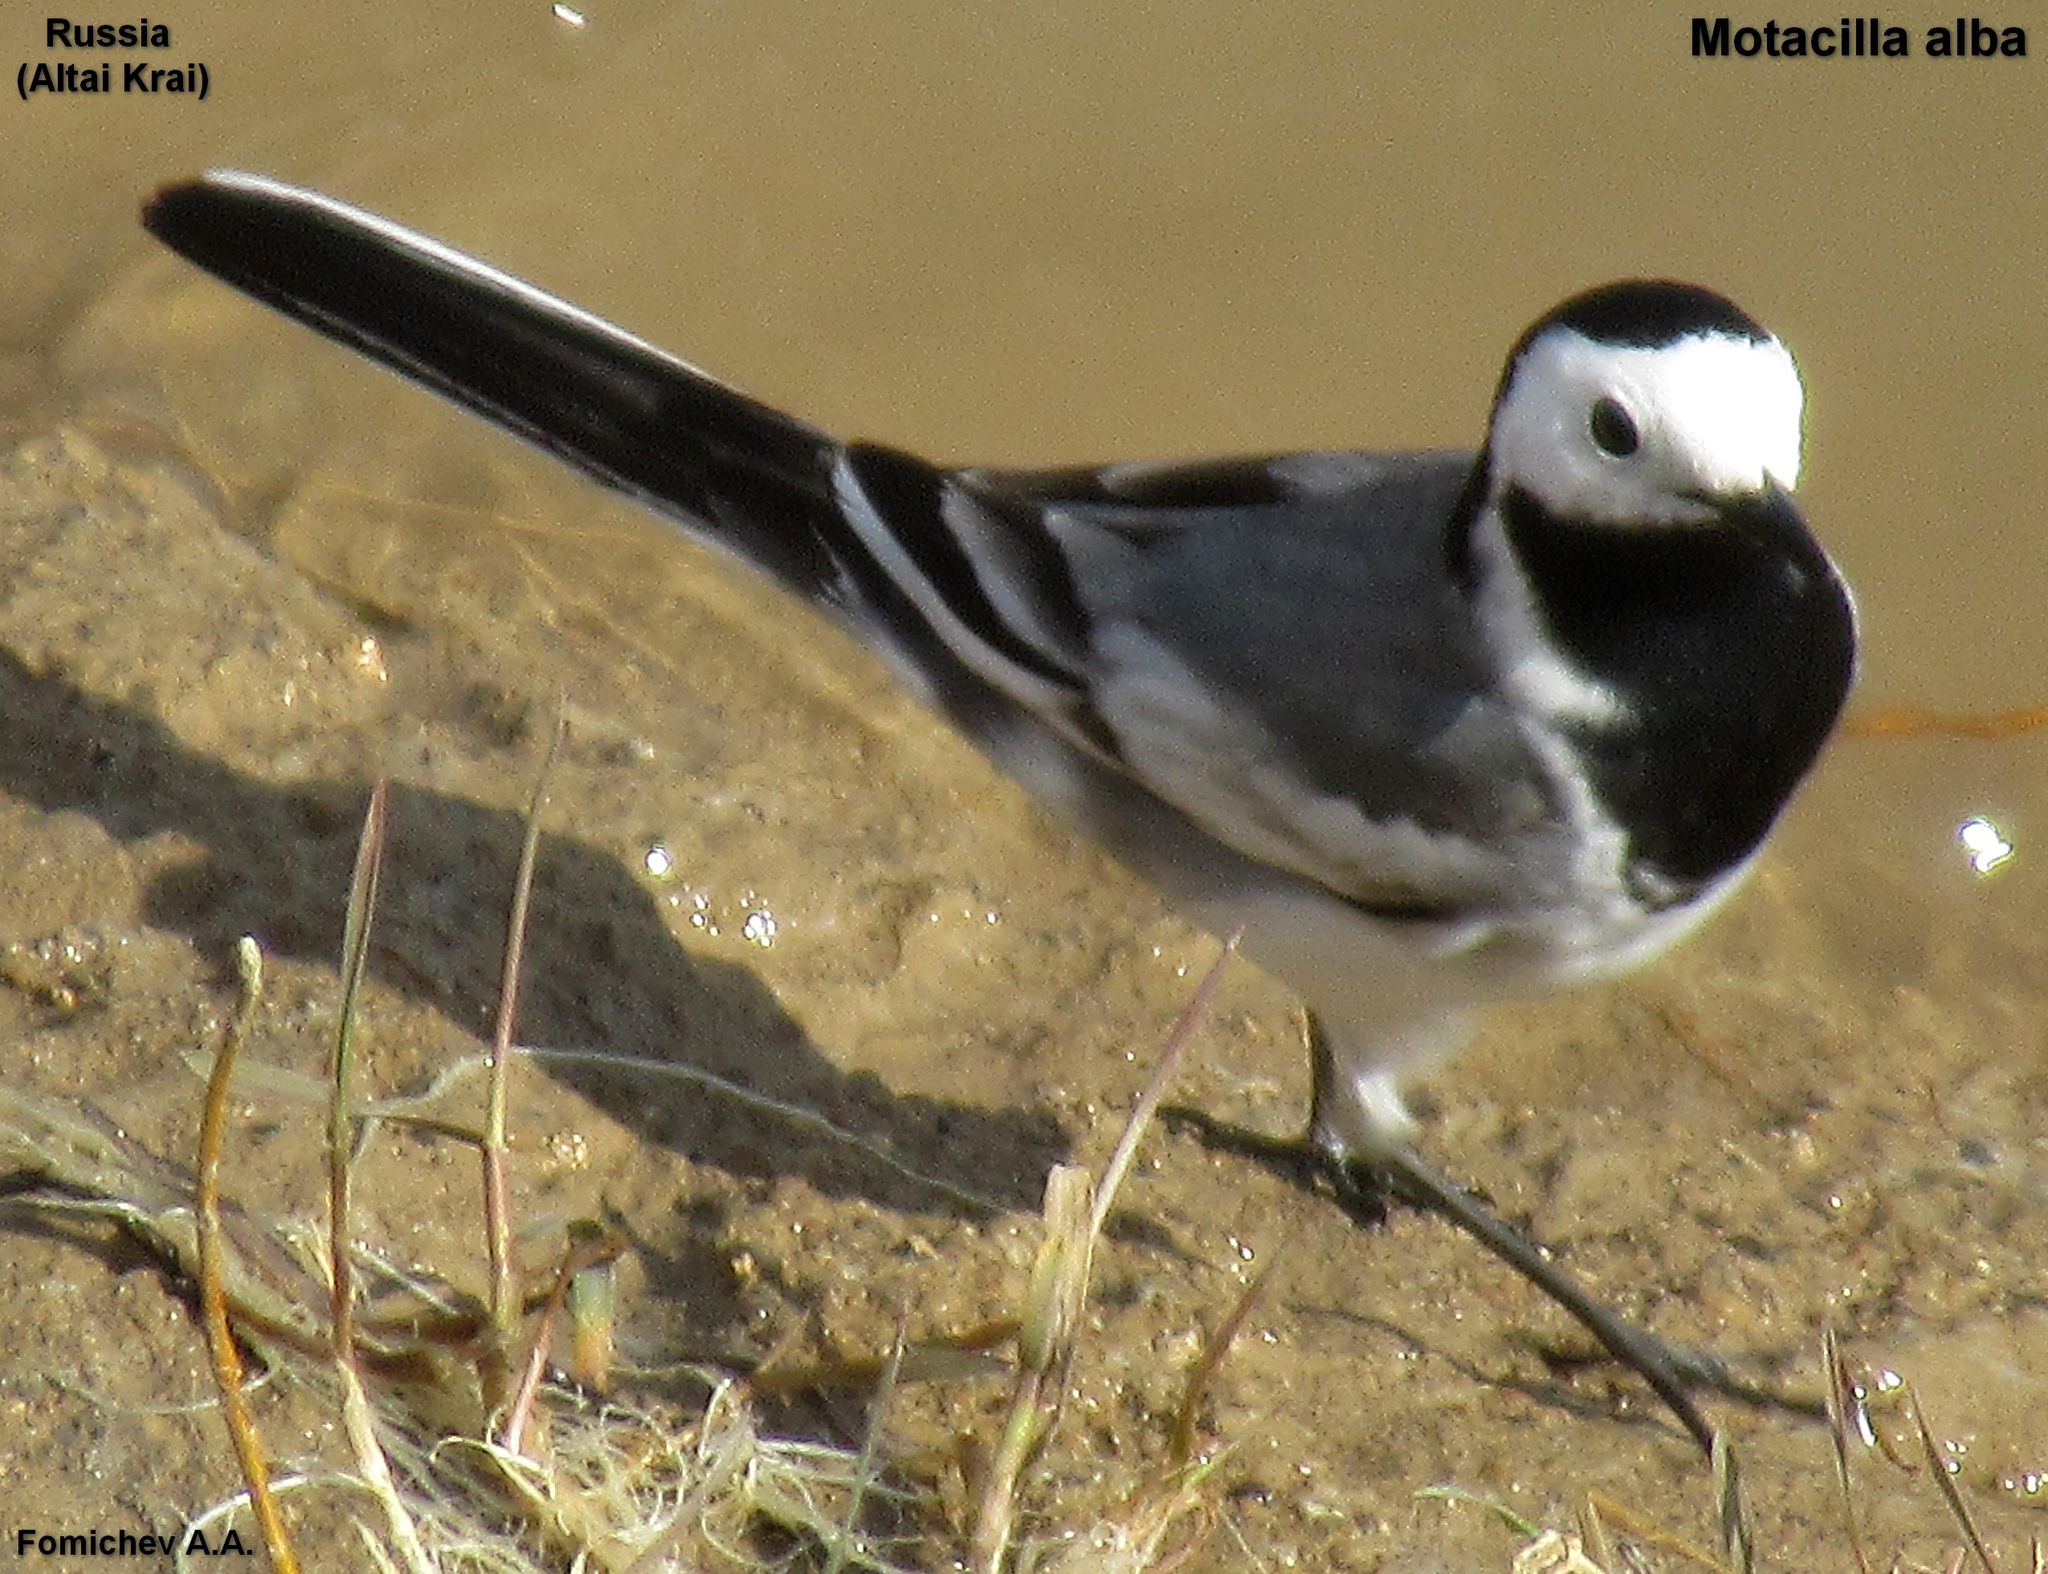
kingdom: Animalia
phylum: Chordata
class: Aves
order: Passeriformes
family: Motacillidae
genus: Motacilla
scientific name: Motacilla alba
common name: White wagtail
